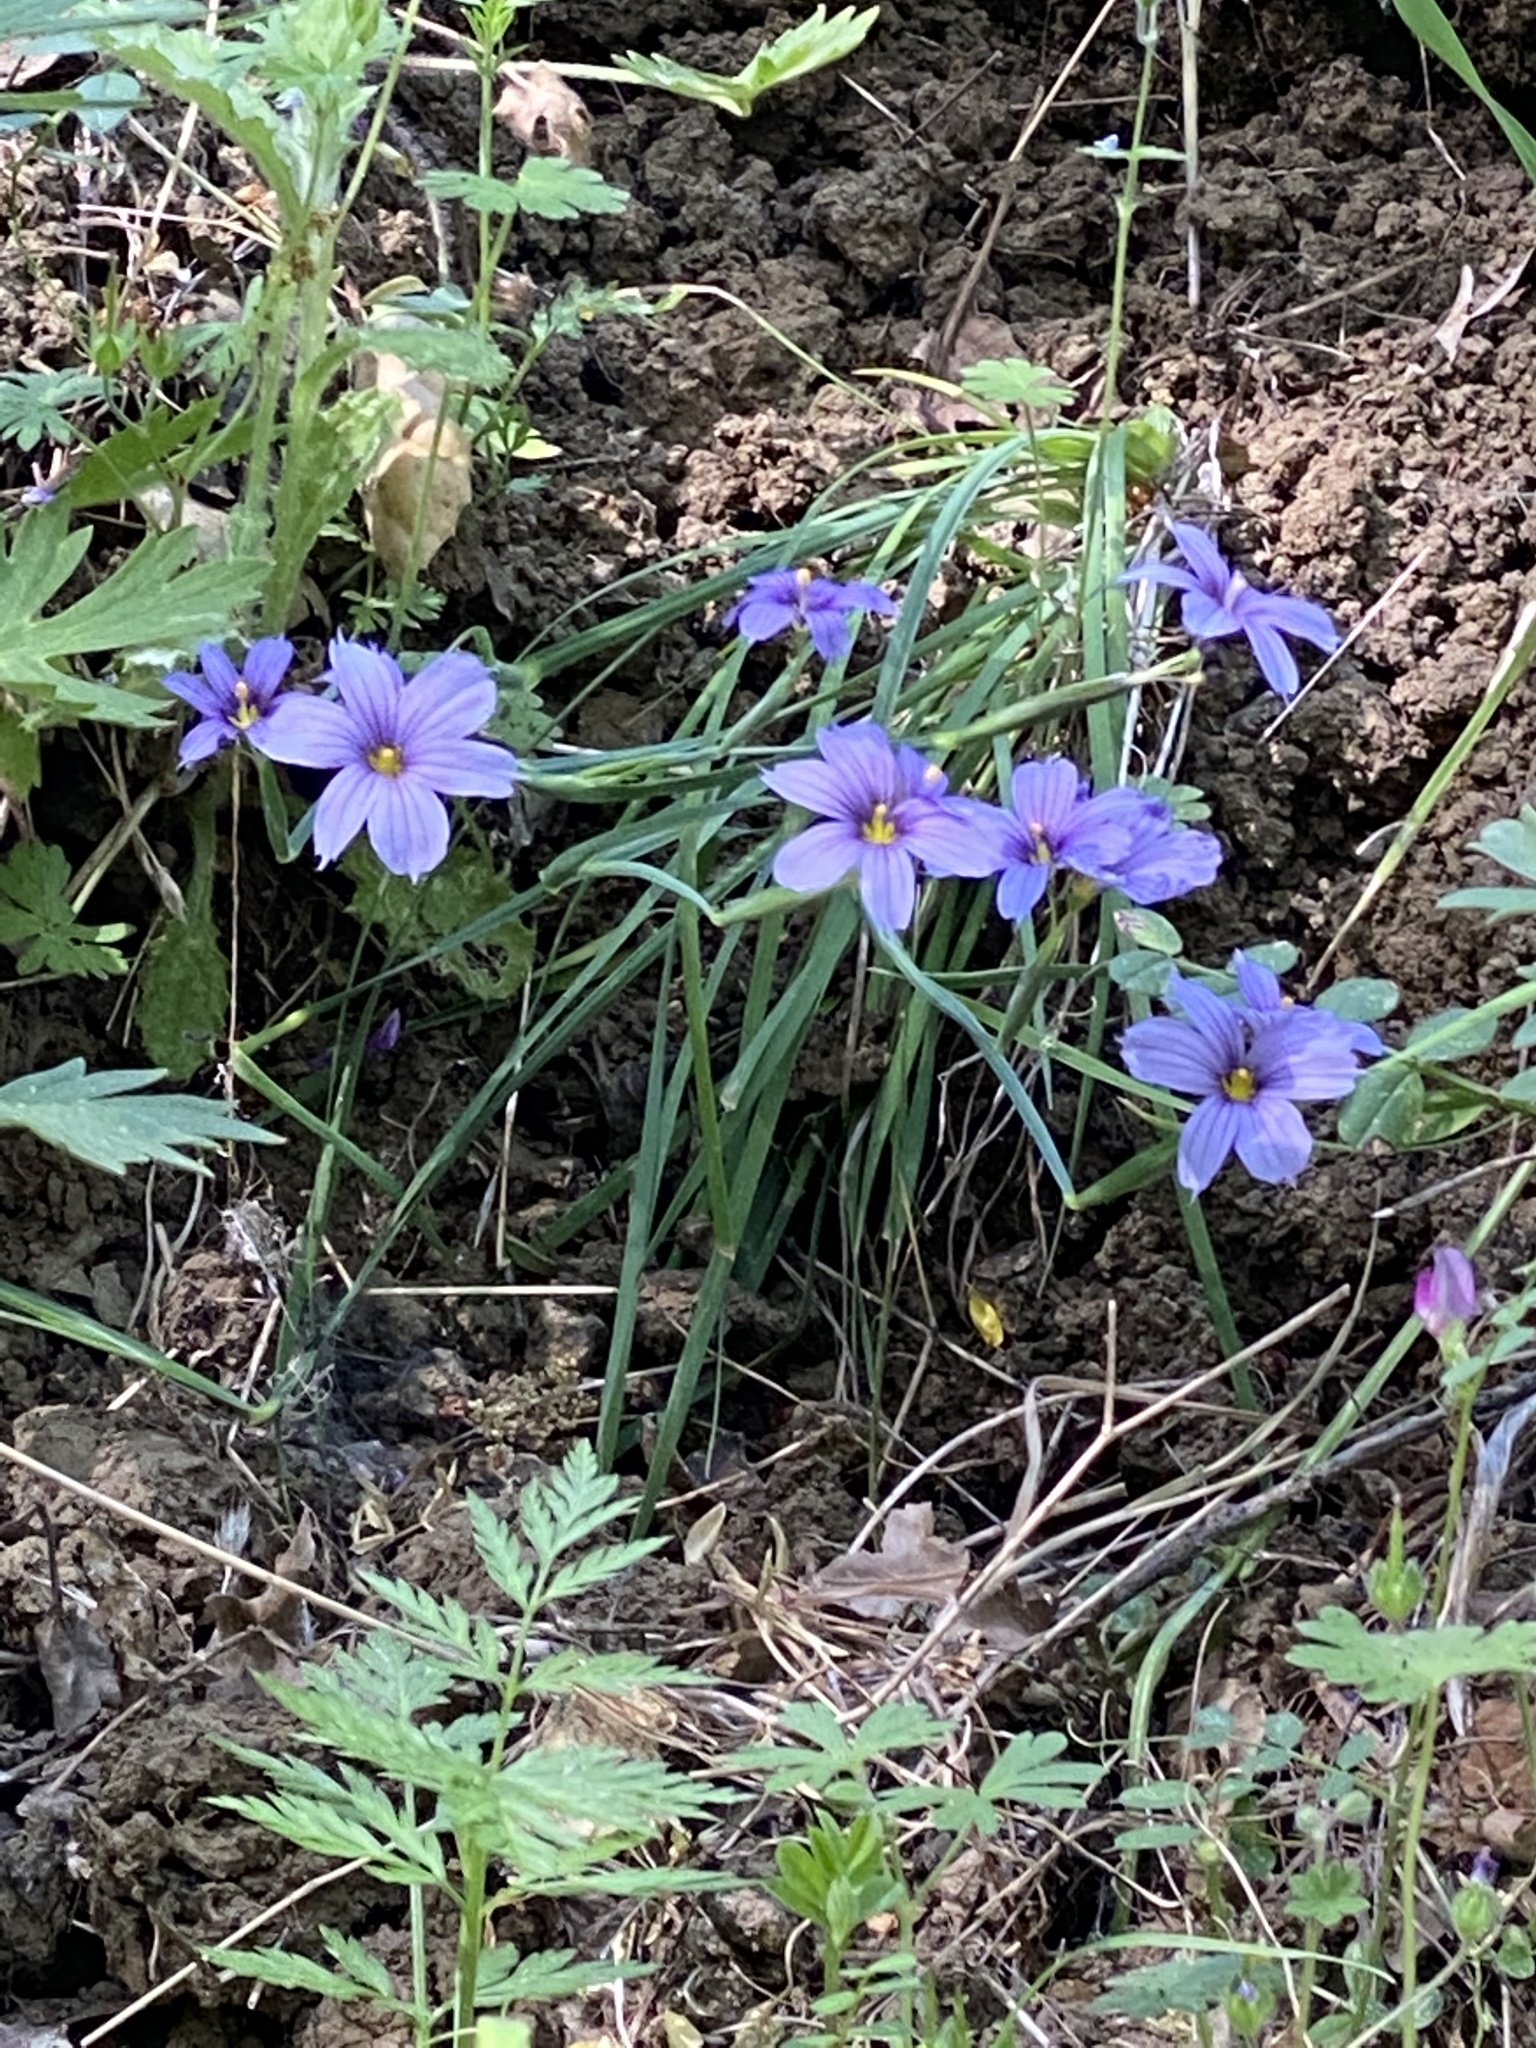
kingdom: Plantae
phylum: Tracheophyta
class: Liliopsida
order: Asparagales
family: Iridaceae
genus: Sisyrinchium
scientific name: Sisyrinchium bellum
